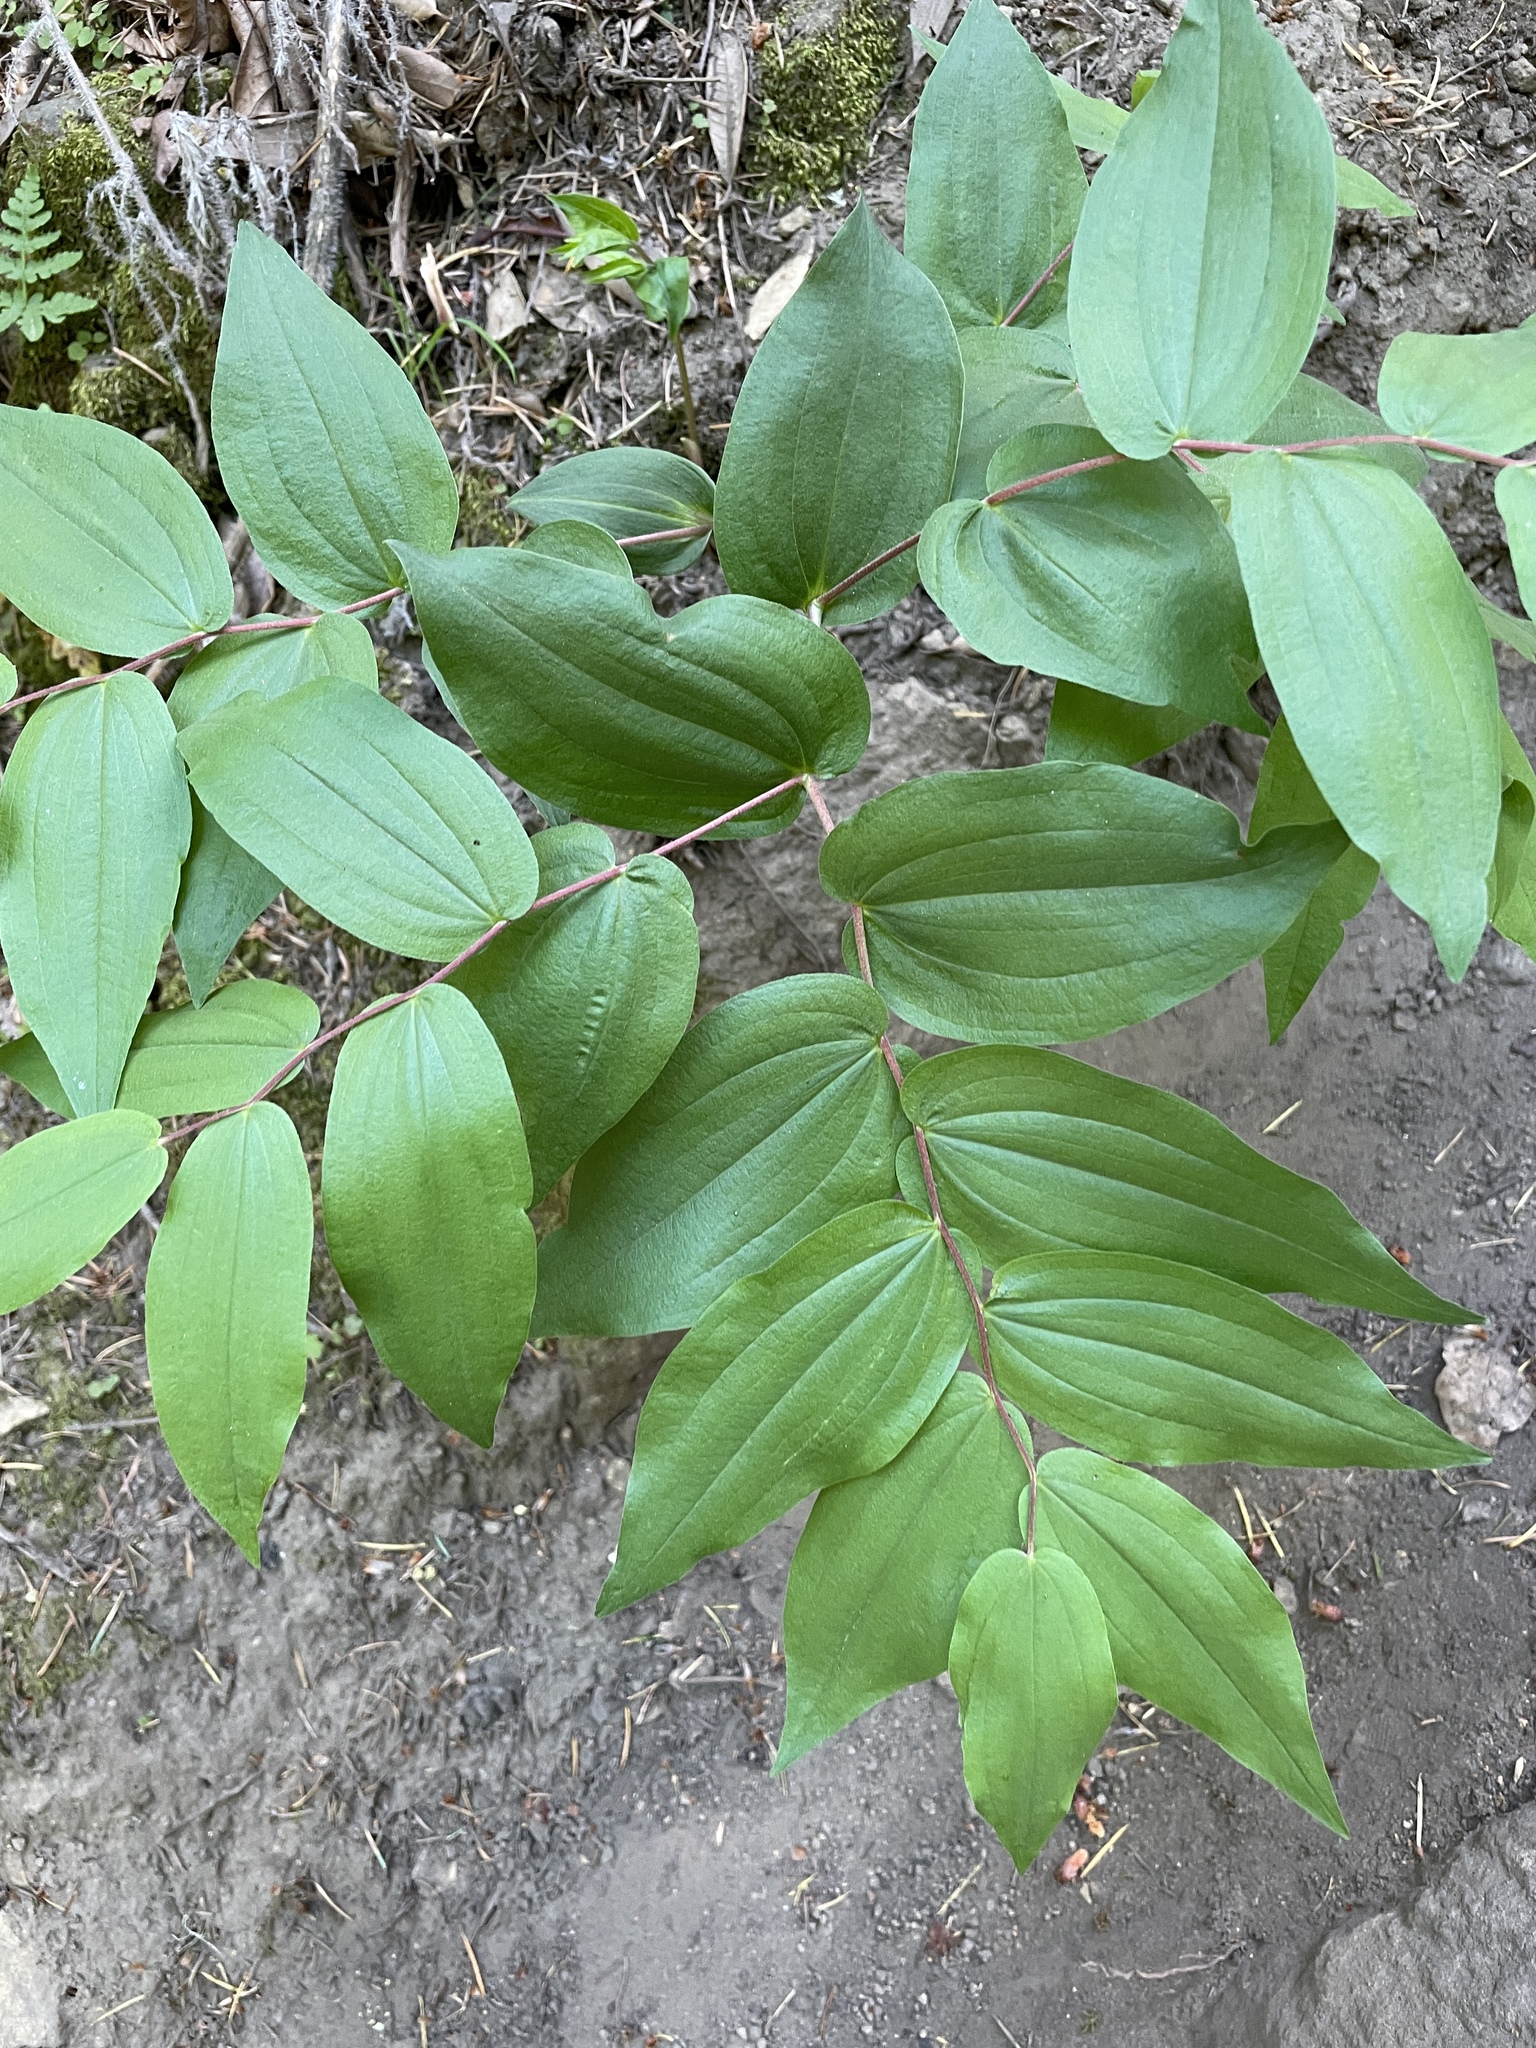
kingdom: Plantae
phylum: Tracheophyta
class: Liliopsida
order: Liliales
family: Liliaceae
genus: Prosartes
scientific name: Prosartes hookeri
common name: Fairy-bells
